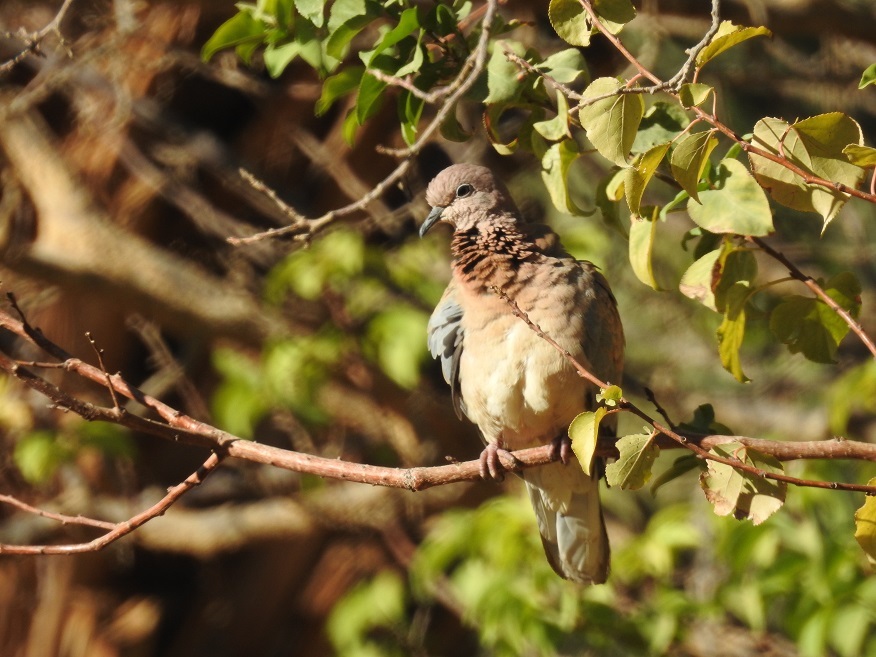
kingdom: Animalia
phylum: Chordata
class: Aves
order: Columbiformes
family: Columbidae
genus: Spilopelia
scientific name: Spilopelia senegalensis
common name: Laughing dove
